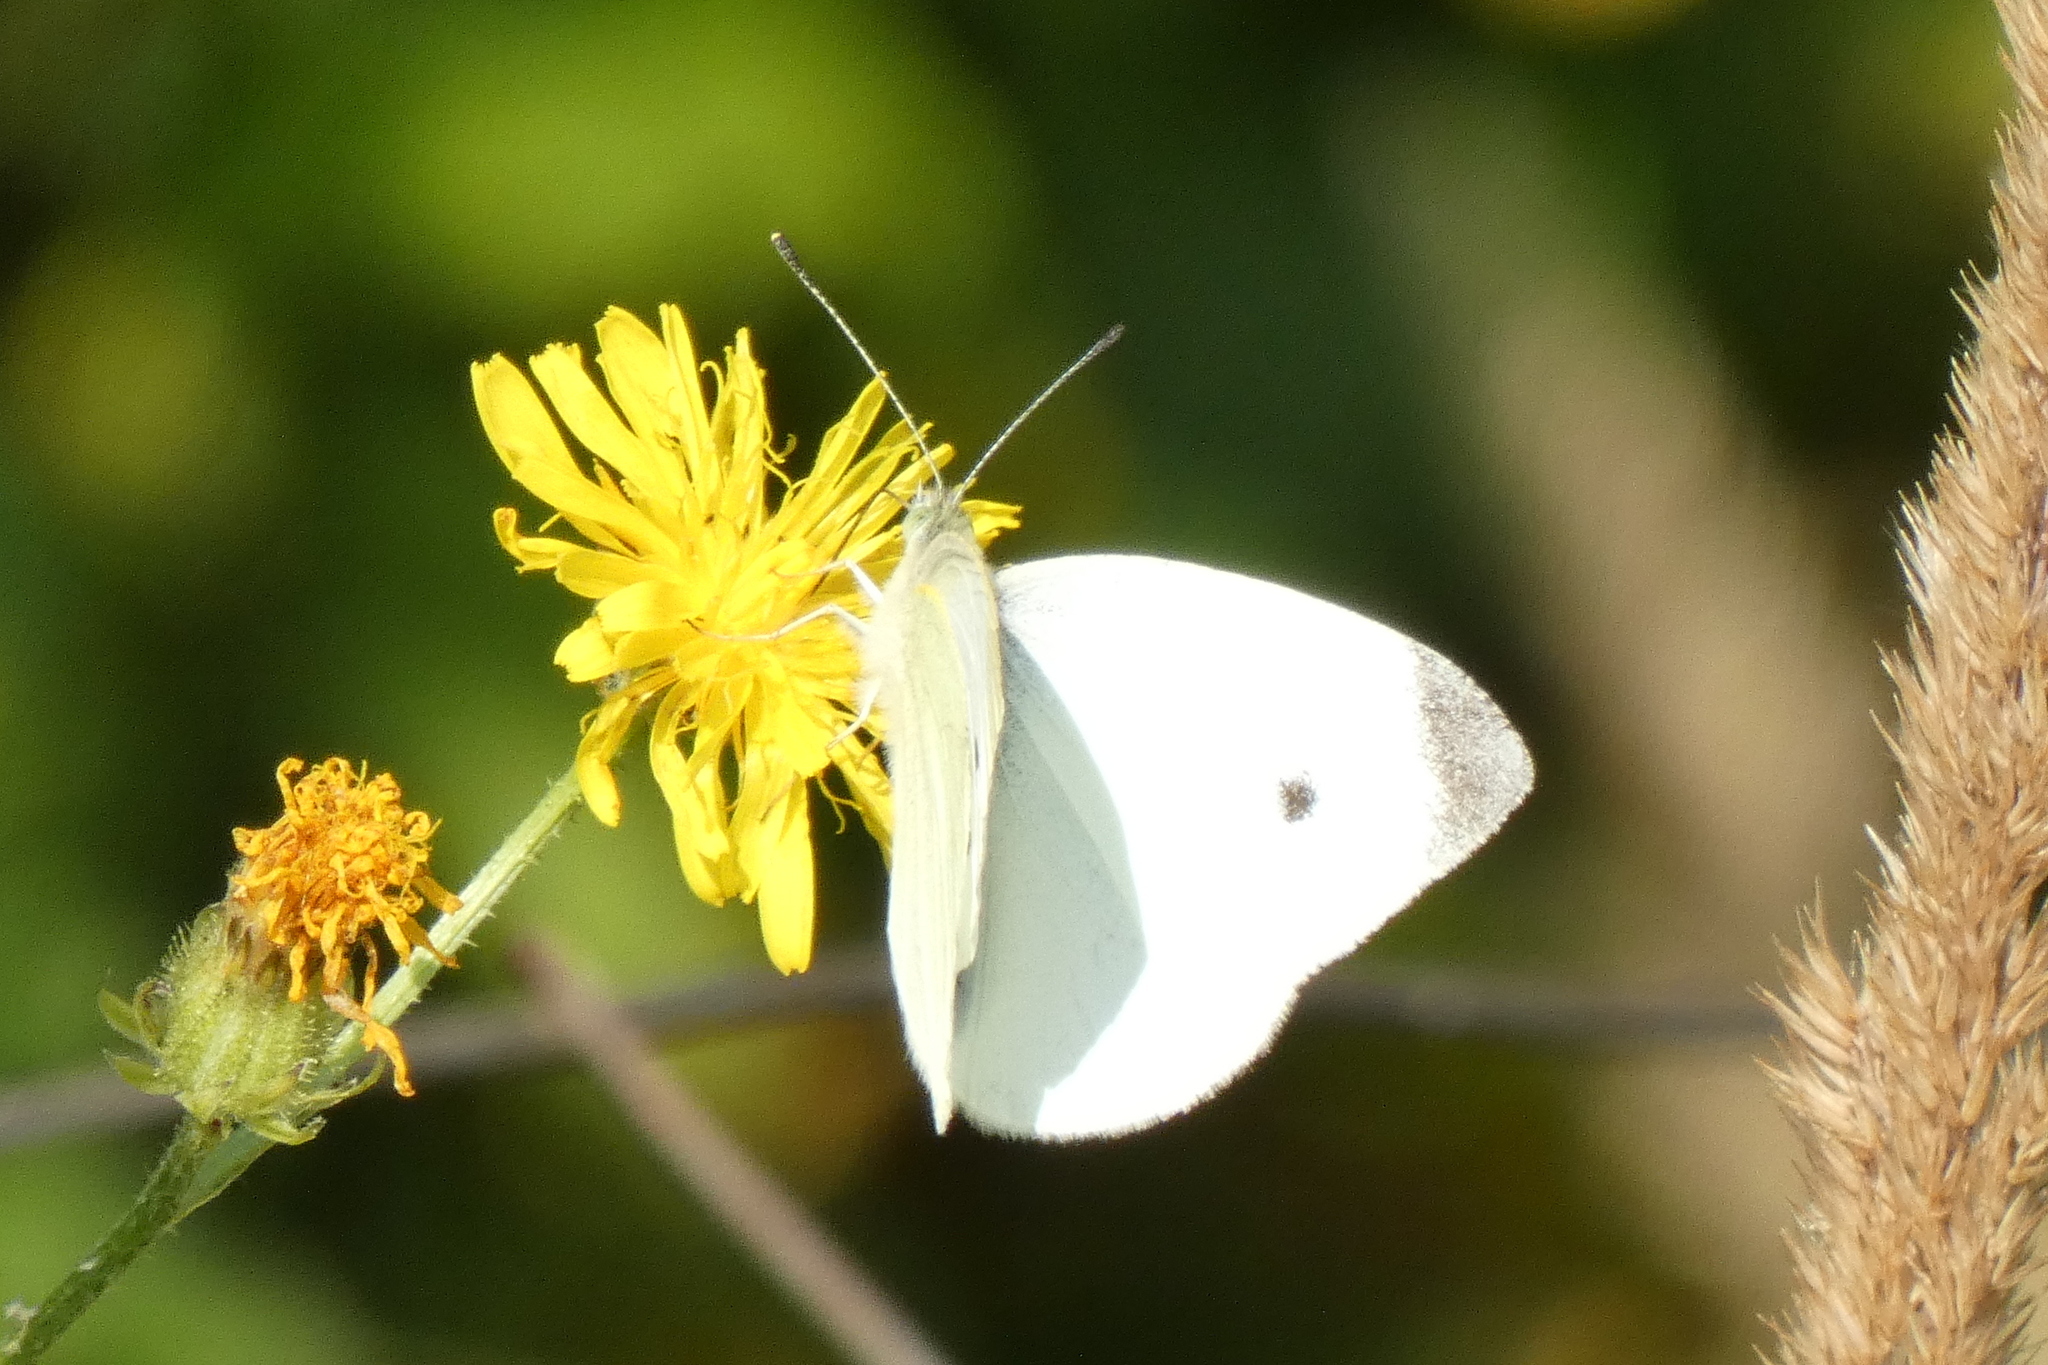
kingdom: Animalia
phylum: Arthropoda
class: Insecta
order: Lepidoptera
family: Pieridae
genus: Pieris
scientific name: Pieris rapae
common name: Small white
